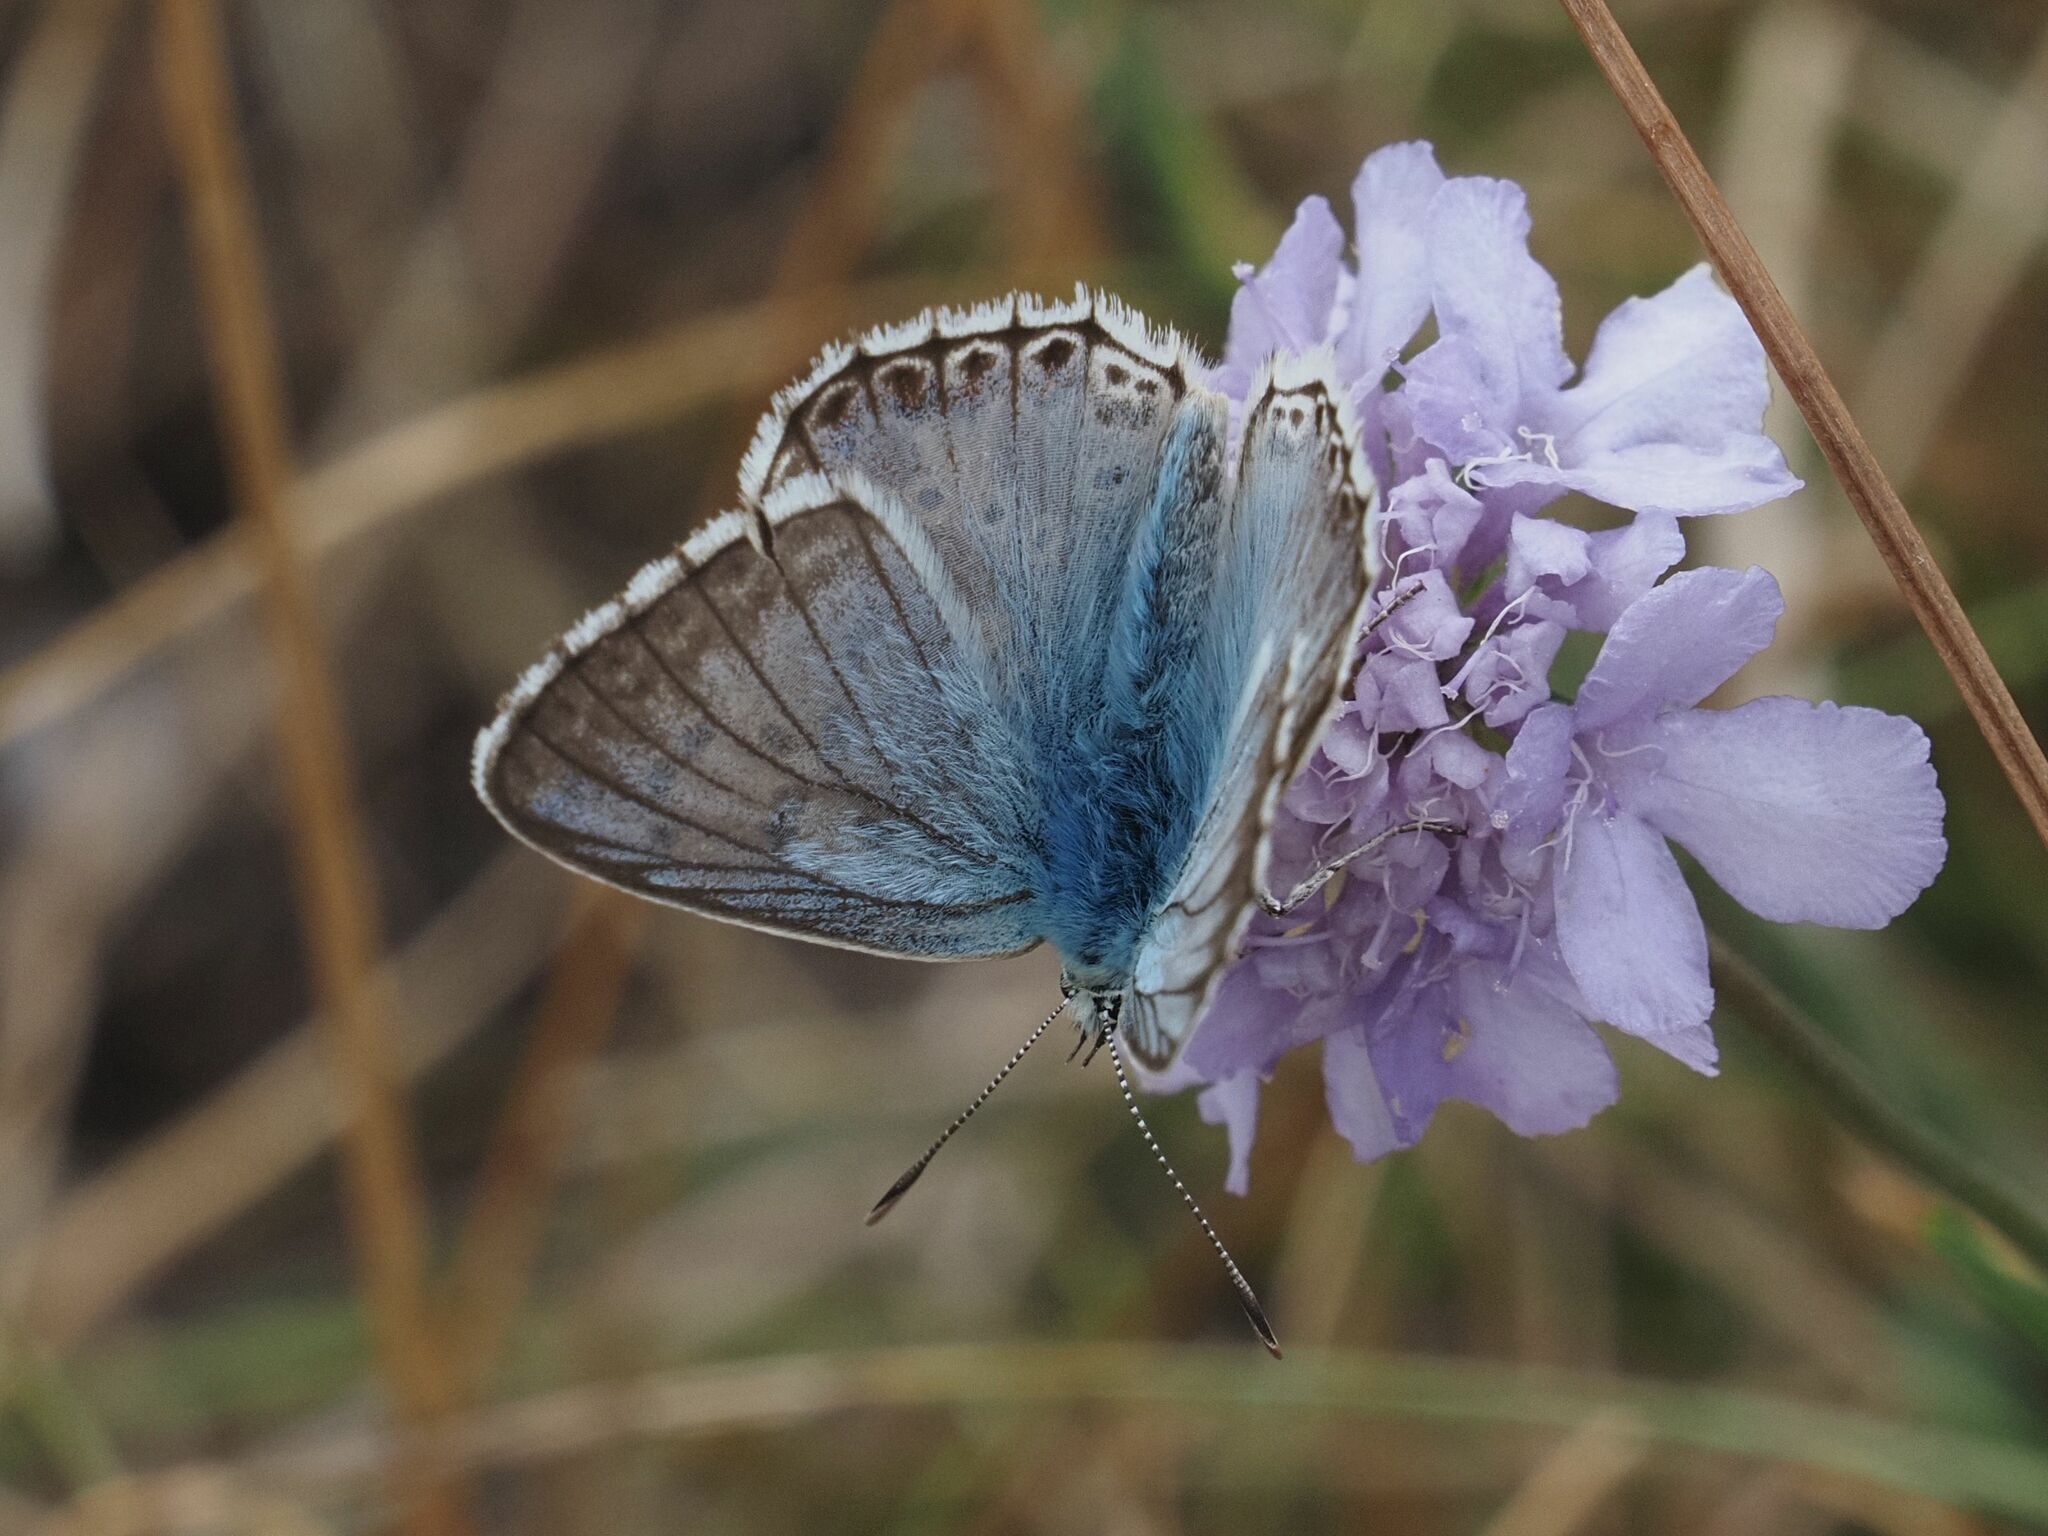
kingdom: Animalia
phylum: Arthropoda
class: Insecta
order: Lepidoptera
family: Lycaenidae
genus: Lysandra
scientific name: Lysandra coridon
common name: Chalkhill blue
